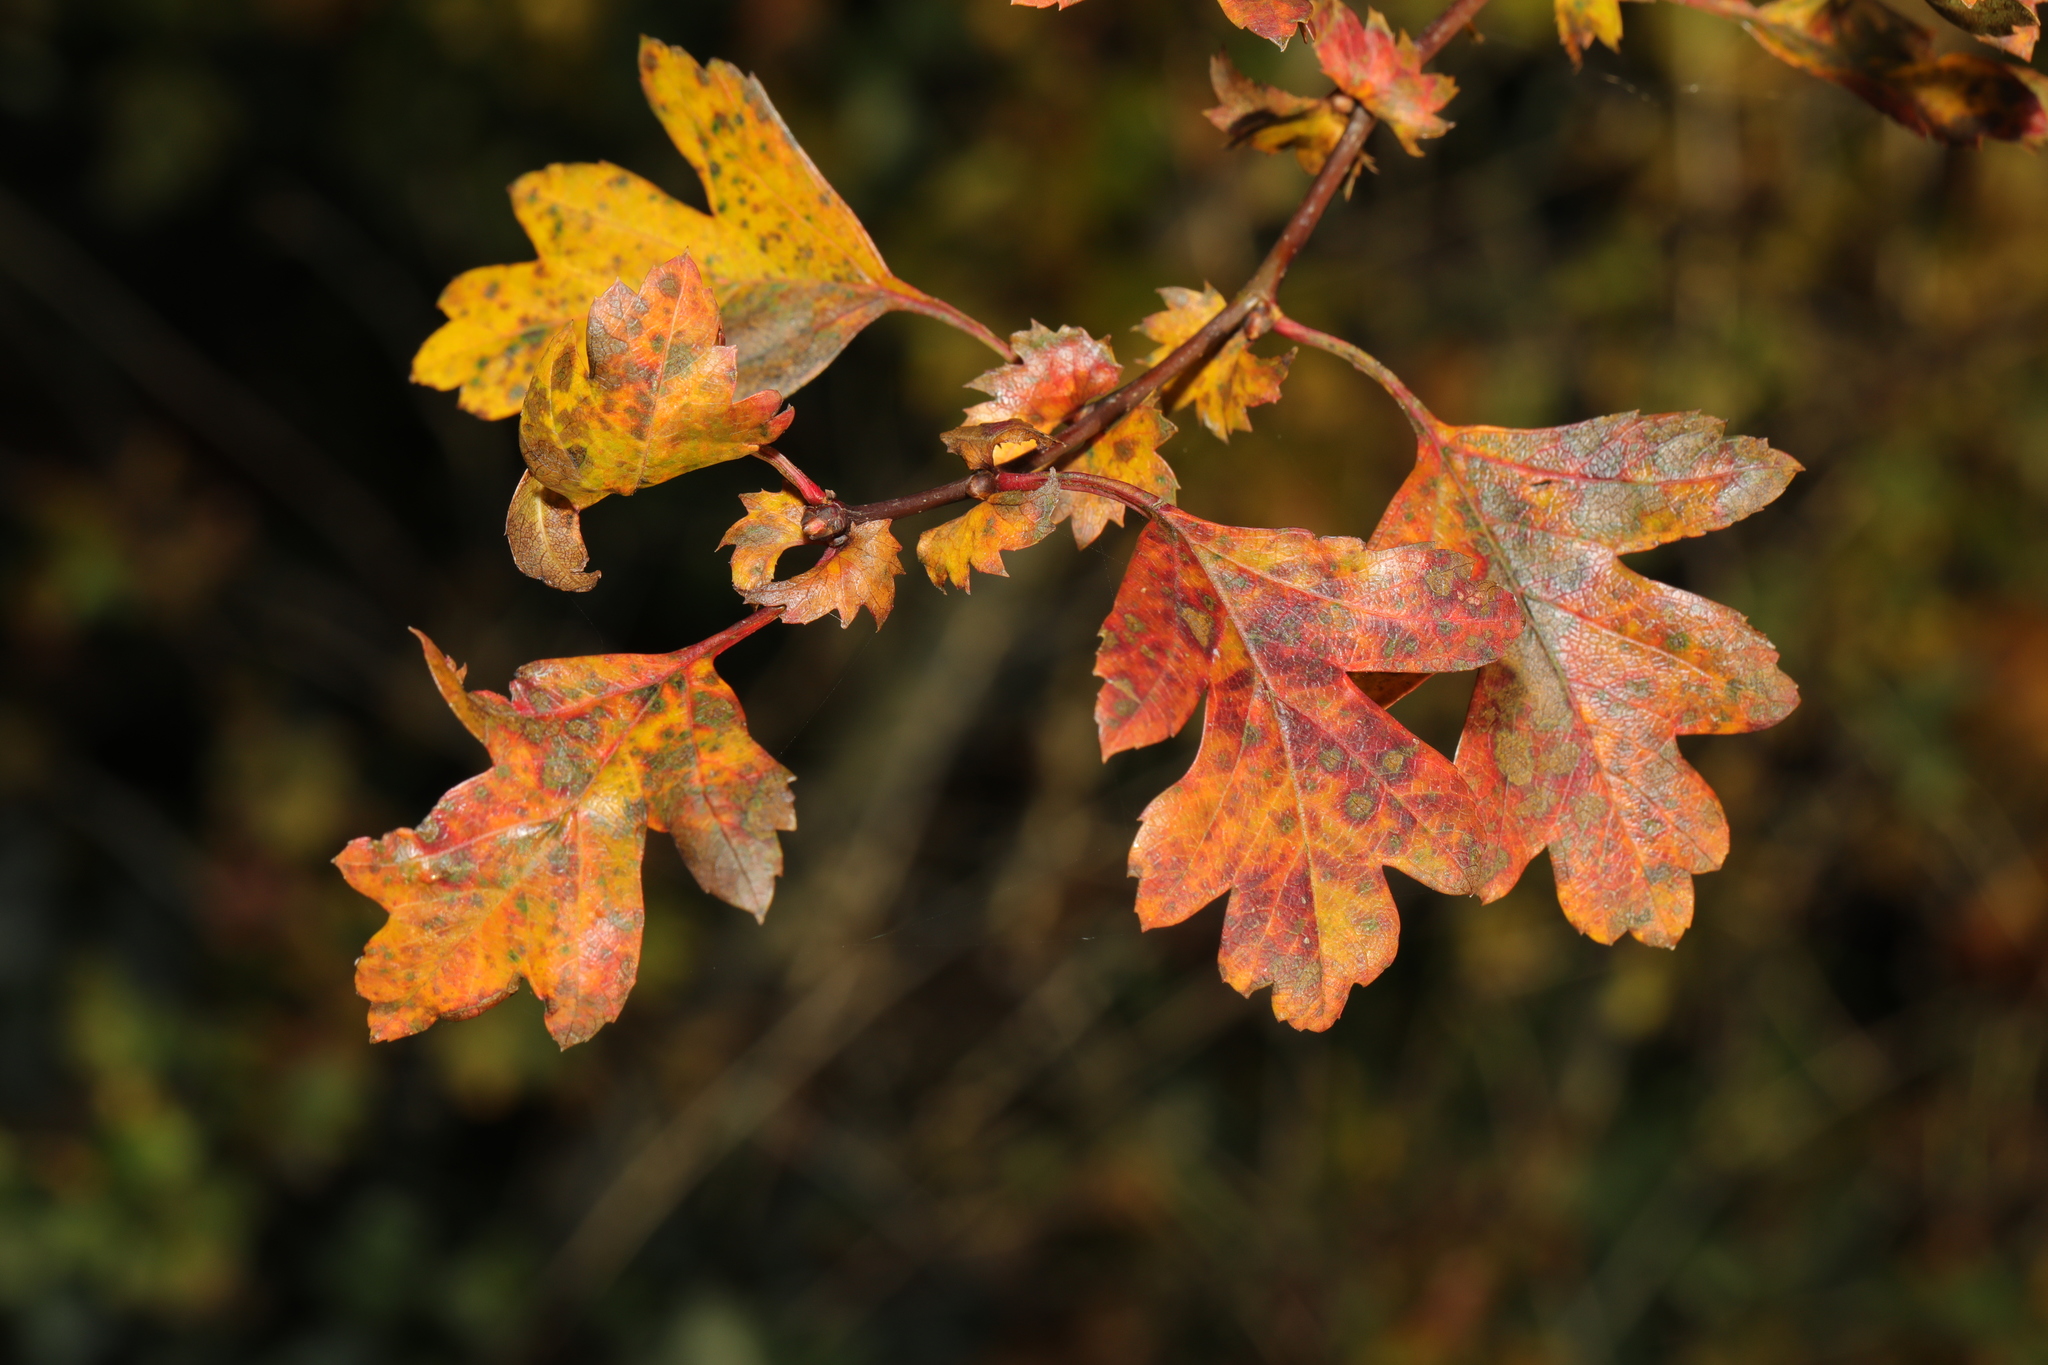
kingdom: Plantae
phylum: Tracheophyta
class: Magnoliopsida
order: Rosales
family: Rosaceae
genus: Crataegus
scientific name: Crataegus monogyna
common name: Hawthorn
